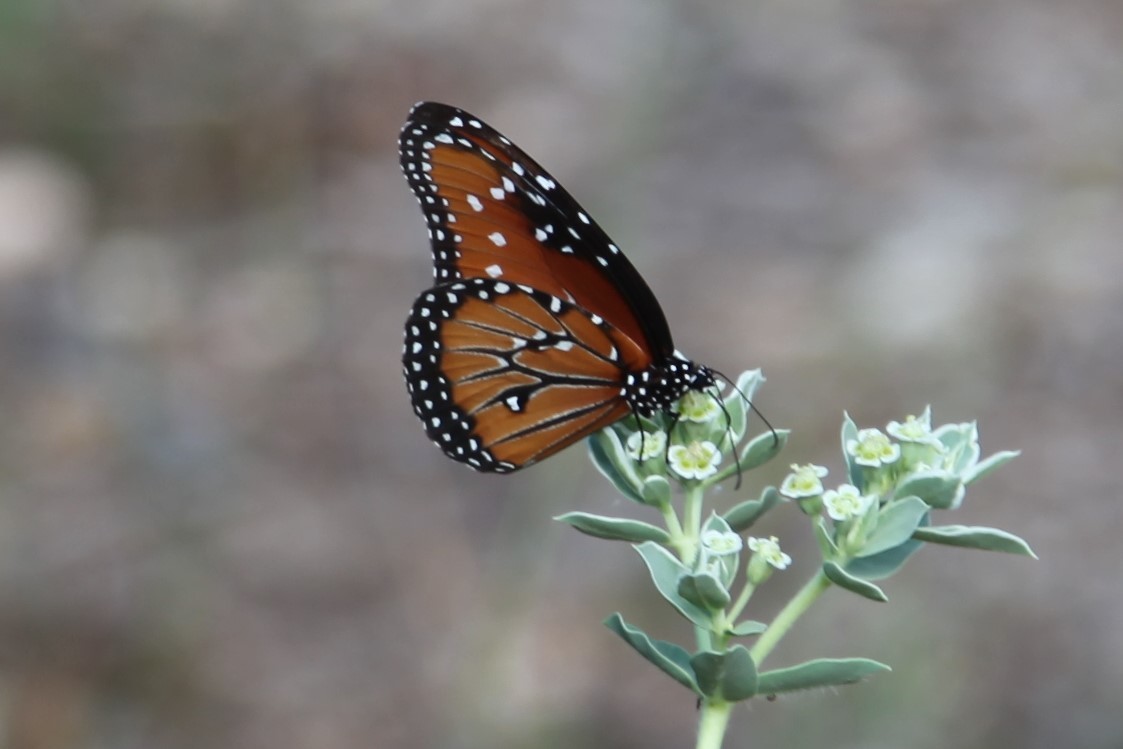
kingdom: Animalia
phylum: Arthropoda
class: Insecta
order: Lepidoptera
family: Nymphalidae
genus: Danaus
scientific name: Danaus gilippus
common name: Queen
